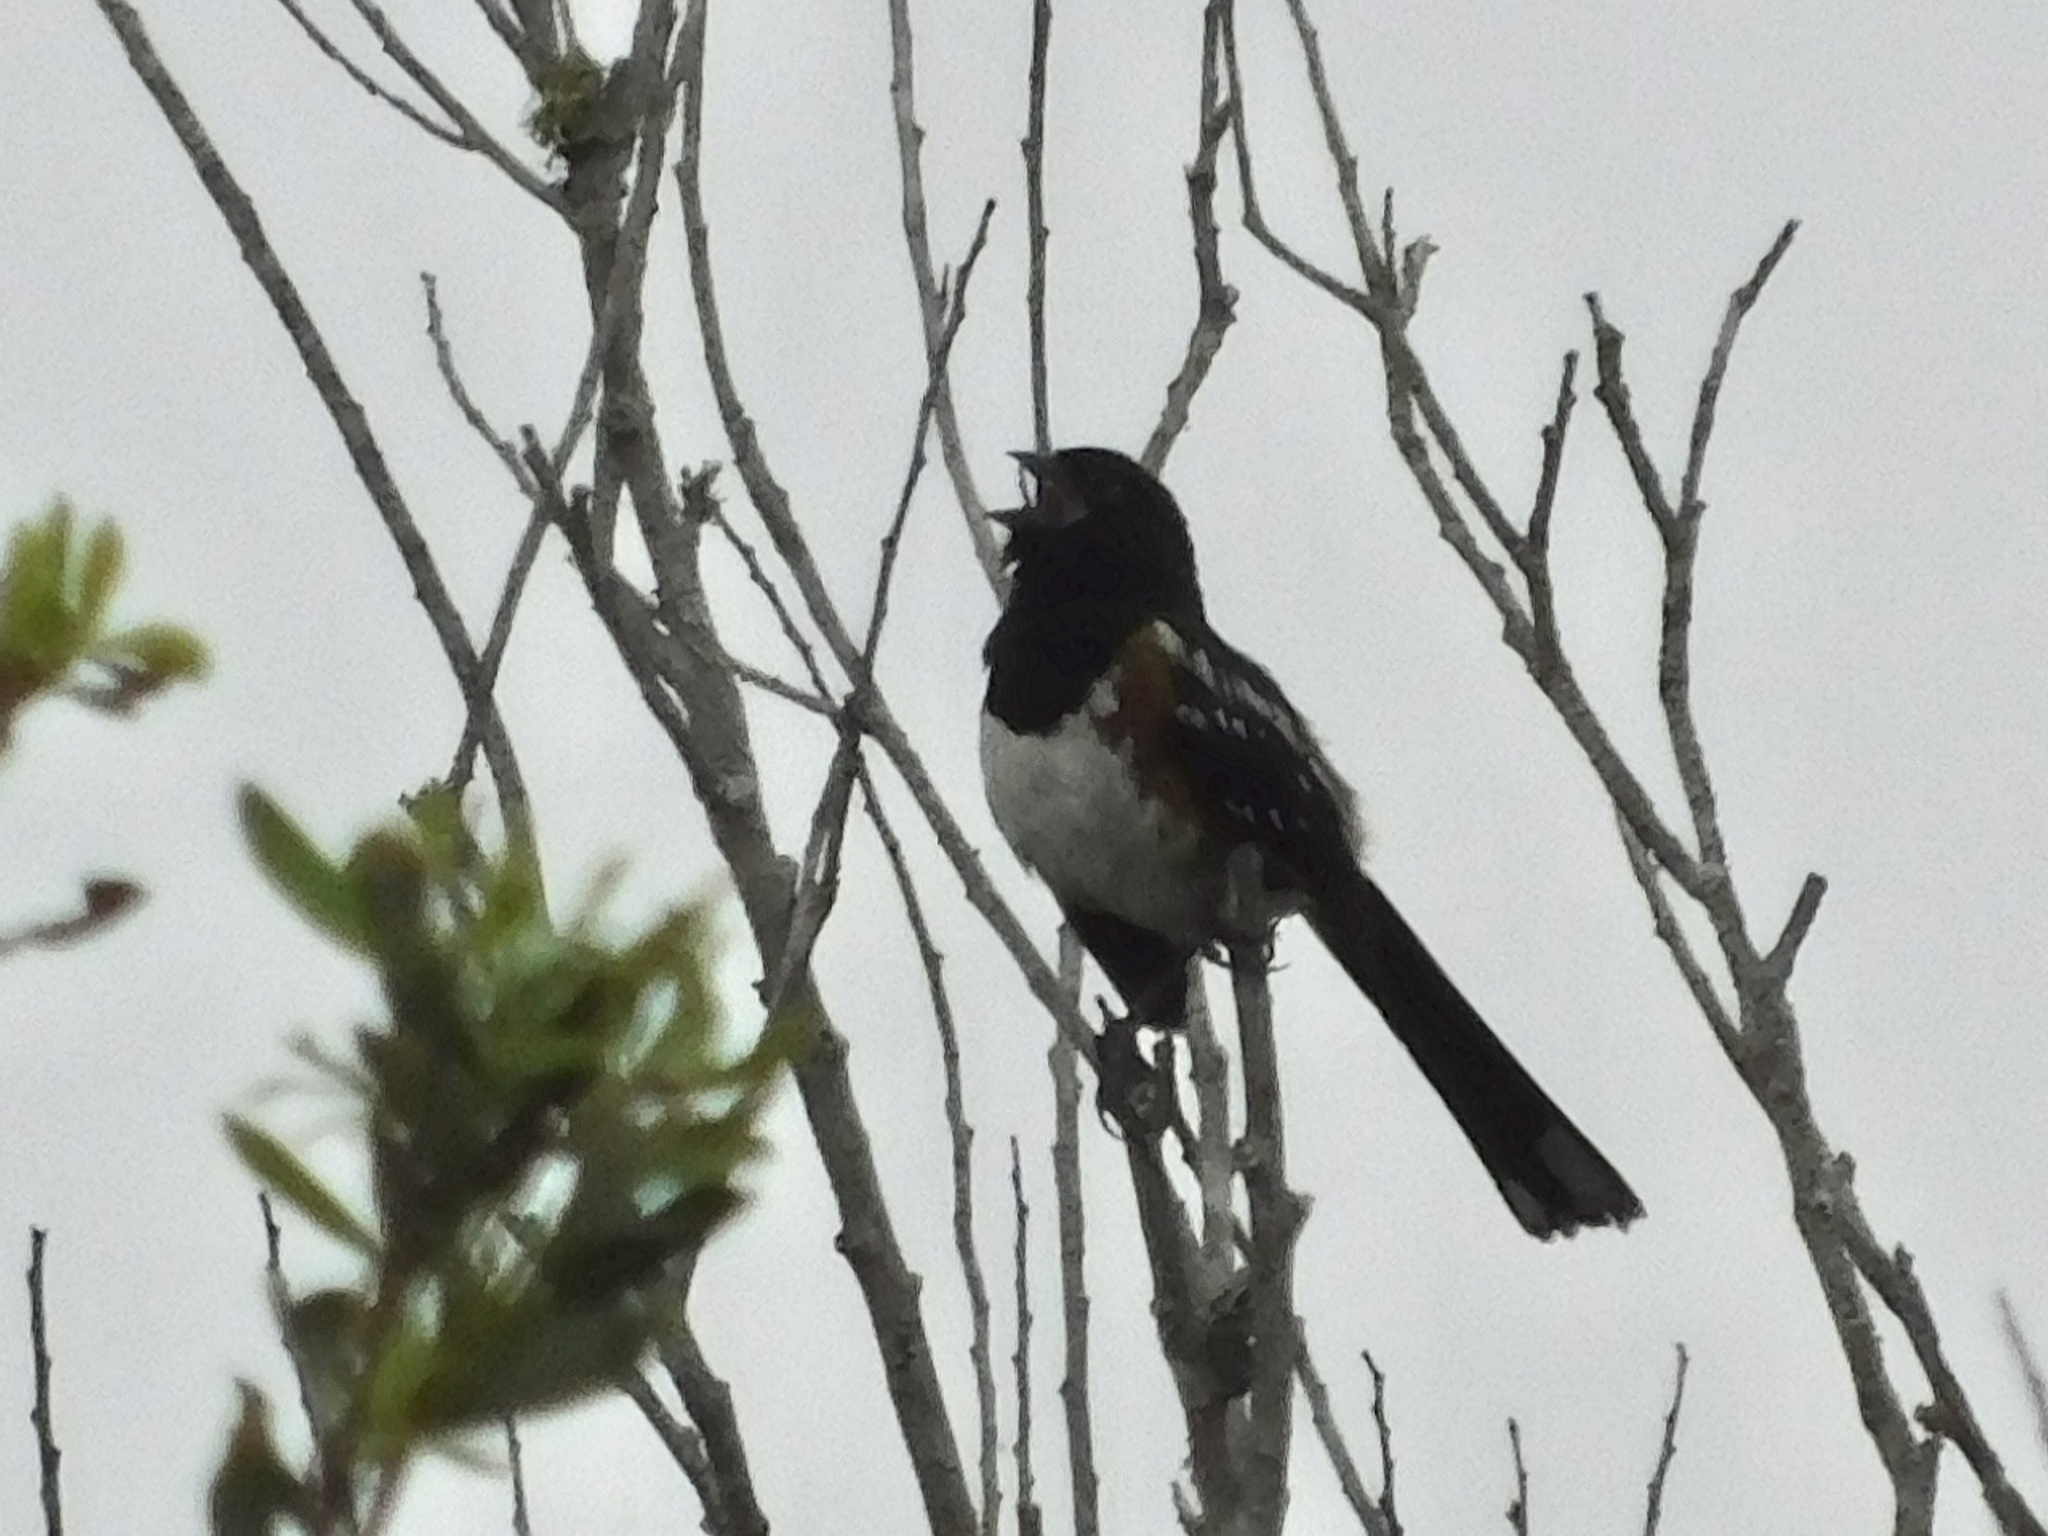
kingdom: Animalia
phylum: Chordata
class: Aves
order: Passeriformes
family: Passerellidae
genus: Pipilo
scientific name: Pipilo maculatus
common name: Spotted towhee
